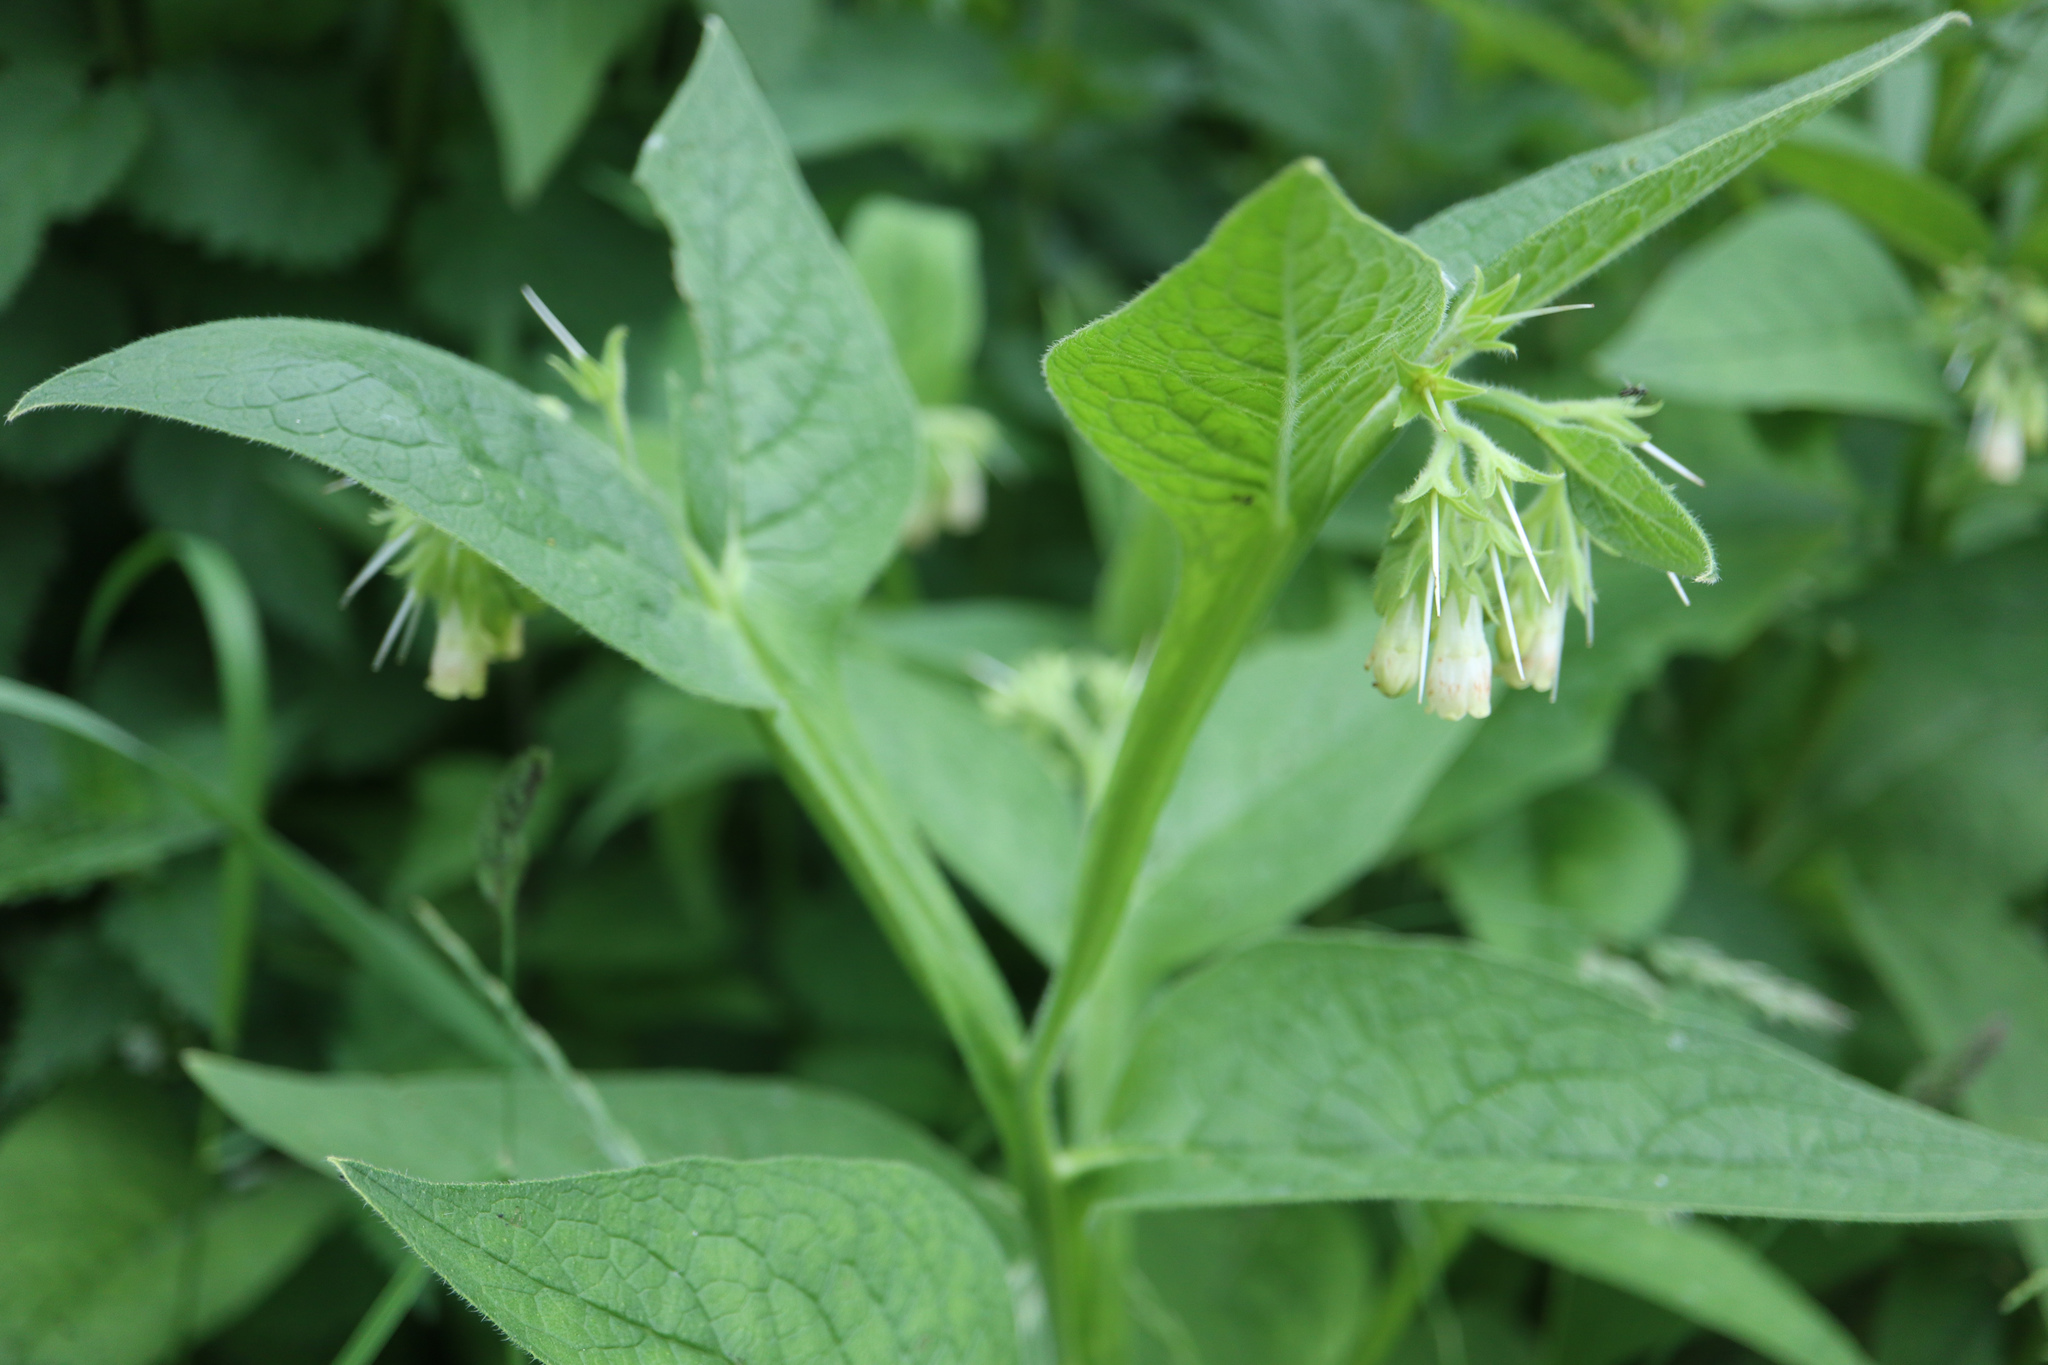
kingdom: Plantae
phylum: Tracheophyta
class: Magnoliopsida
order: Boraginales
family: Boraginaceae
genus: Symphytum
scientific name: Symphytum officinale
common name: Common comfrey
